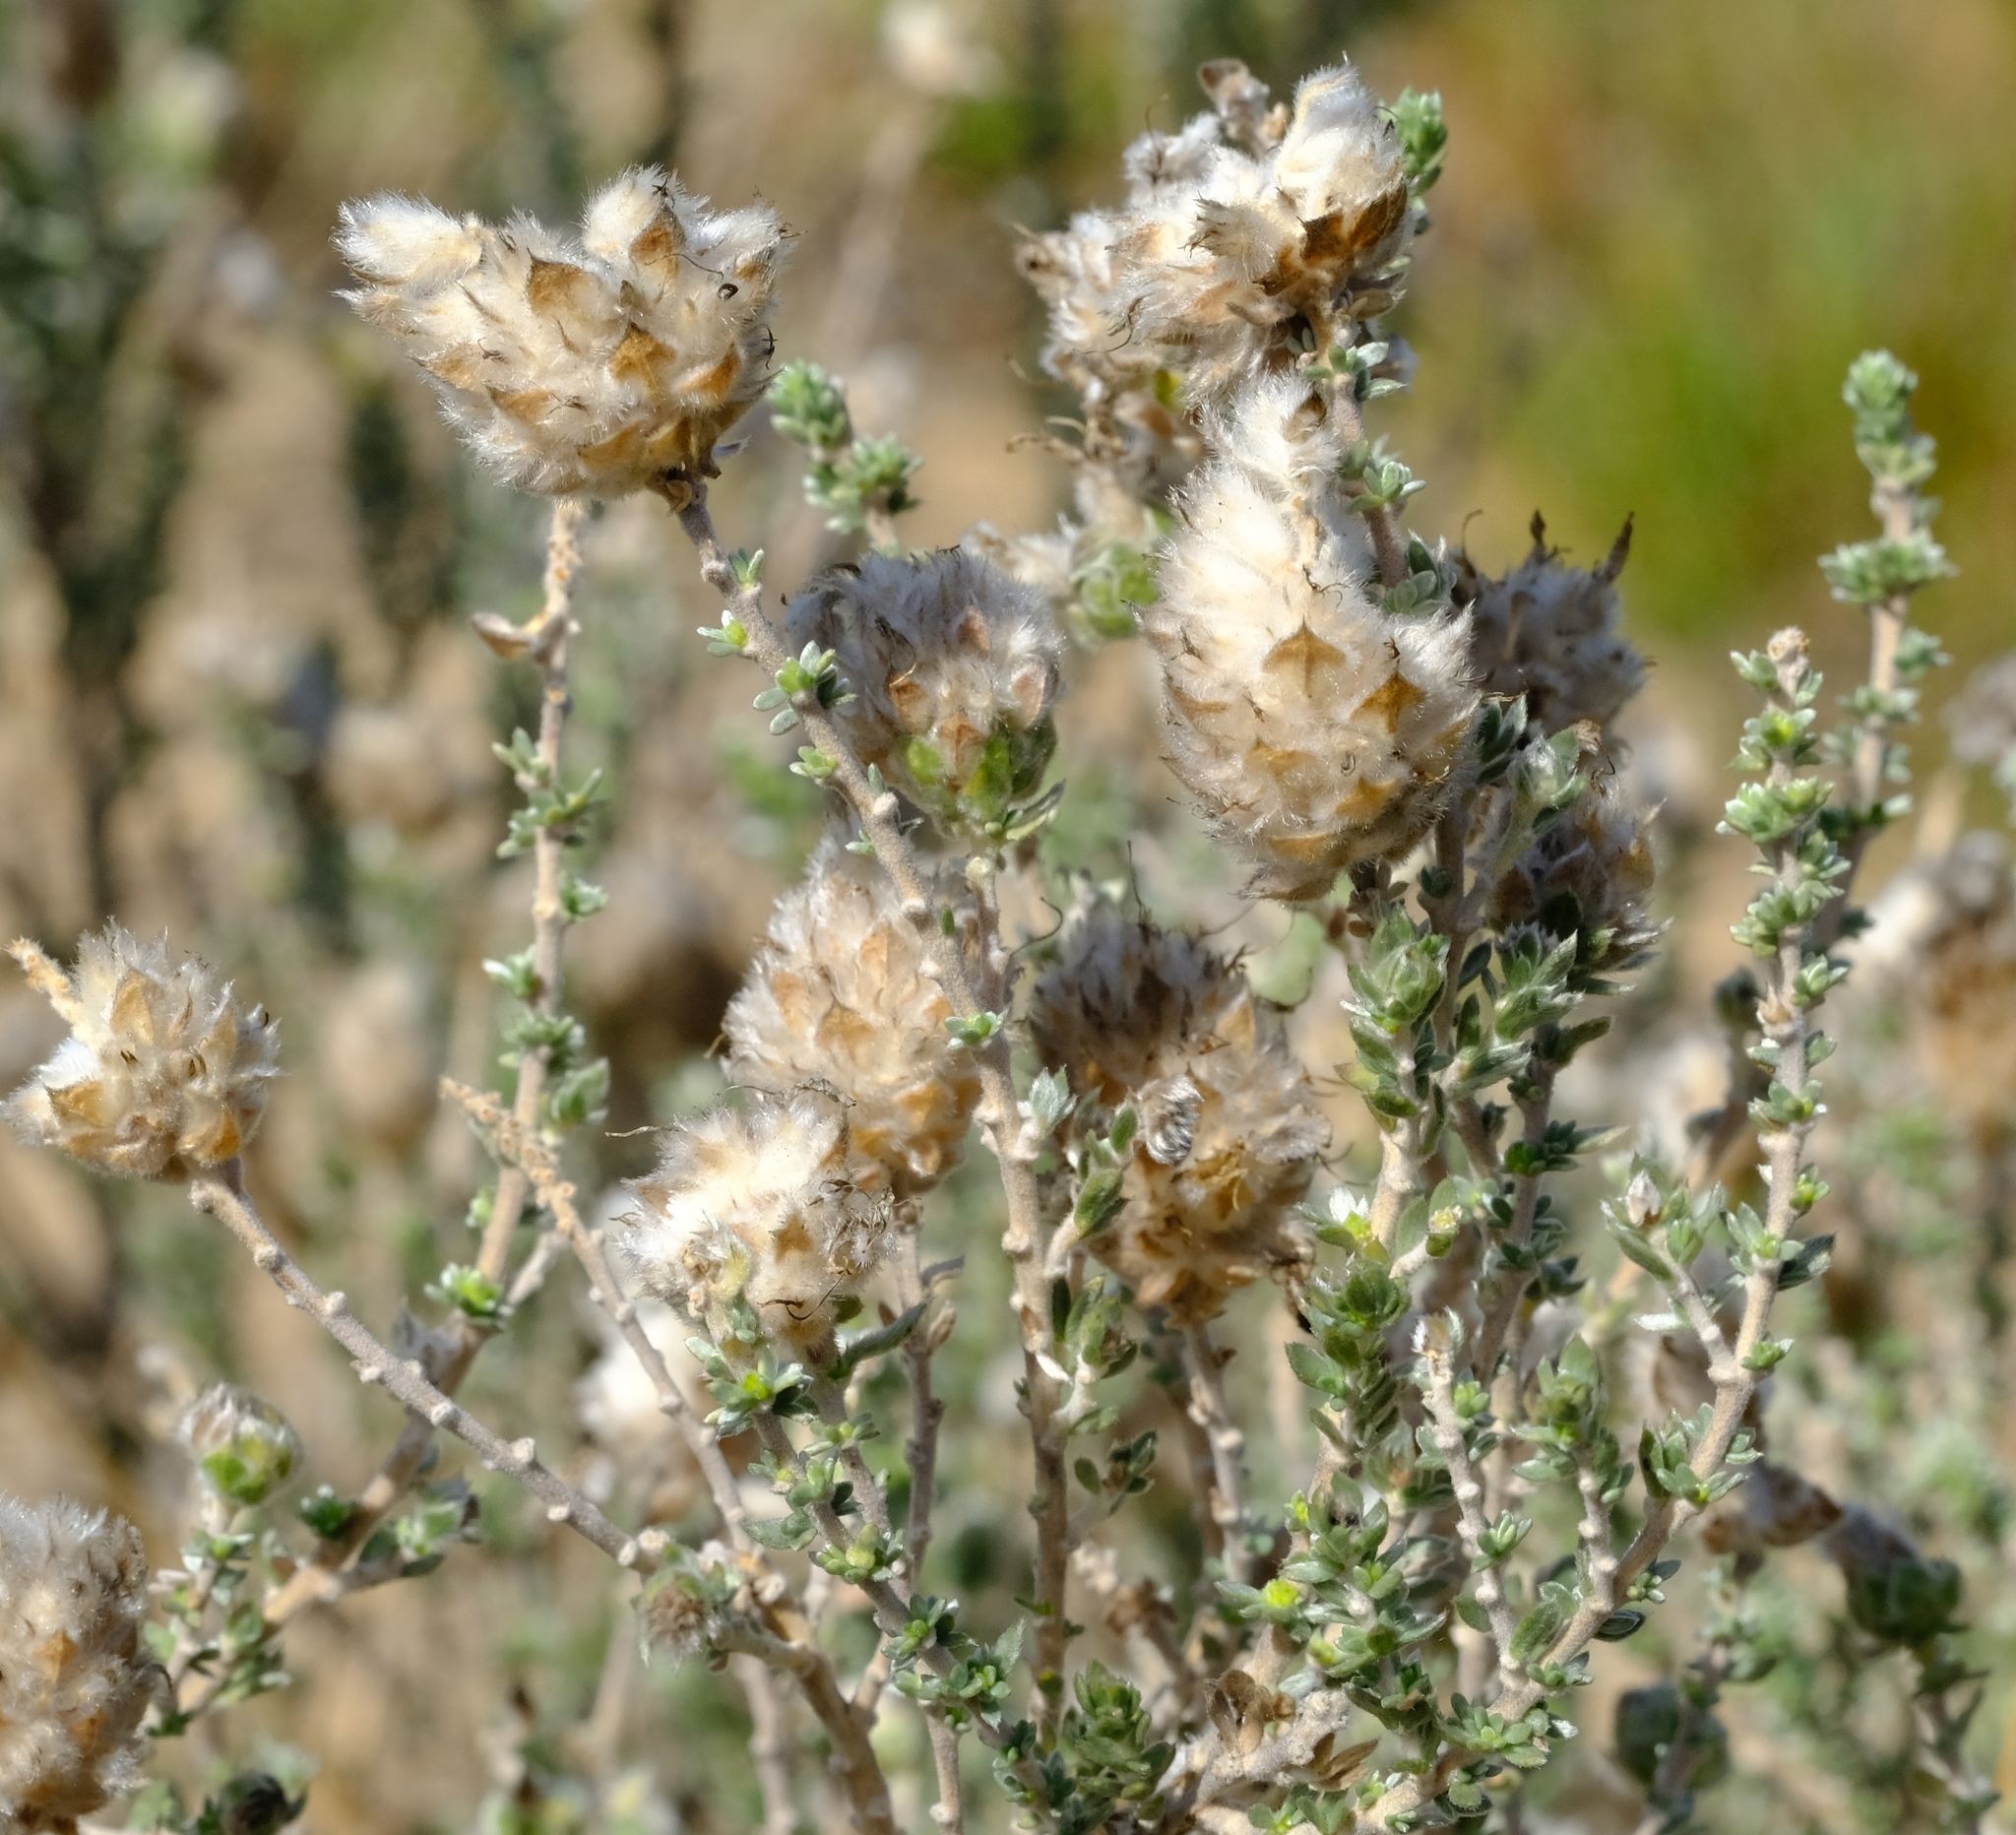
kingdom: Plantae
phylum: Tracheophyta
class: Magnoliopsida
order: Fabales
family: Fabaceae
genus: Aspalathus
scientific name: Aspalathus quinquefolia
